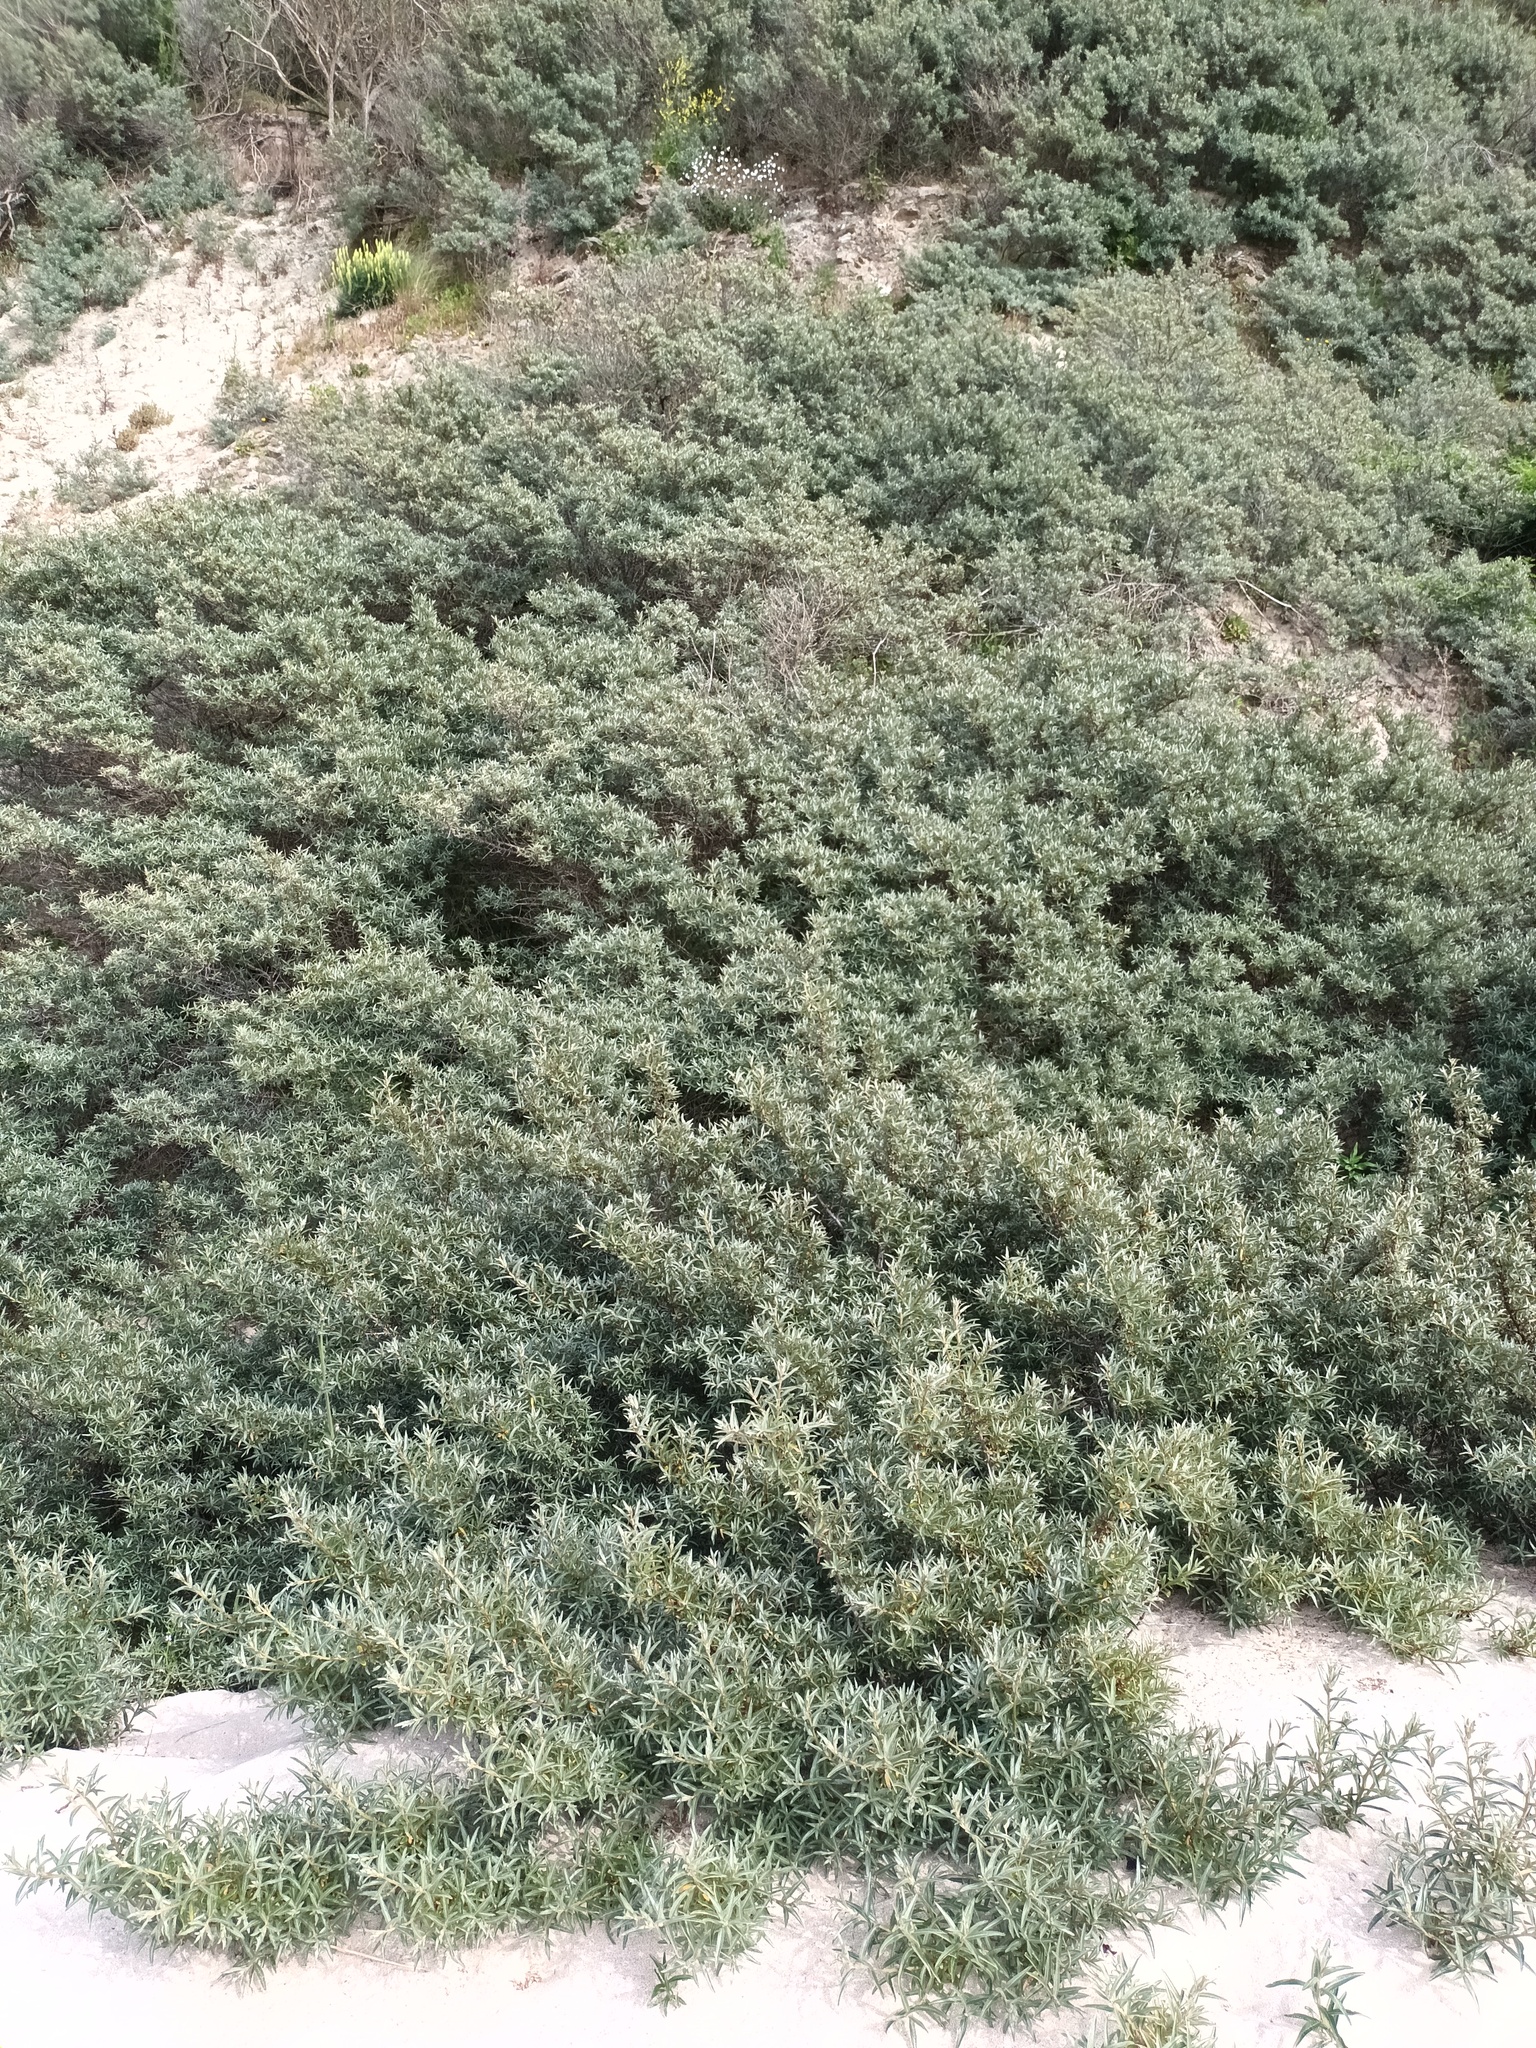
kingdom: Plantae
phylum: Tracheophyta
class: Magnoliopsida
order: Rosales
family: Elaeagnaceae
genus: Hippophae
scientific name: Hippophae rhamnoides
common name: Sea-buckthorn
